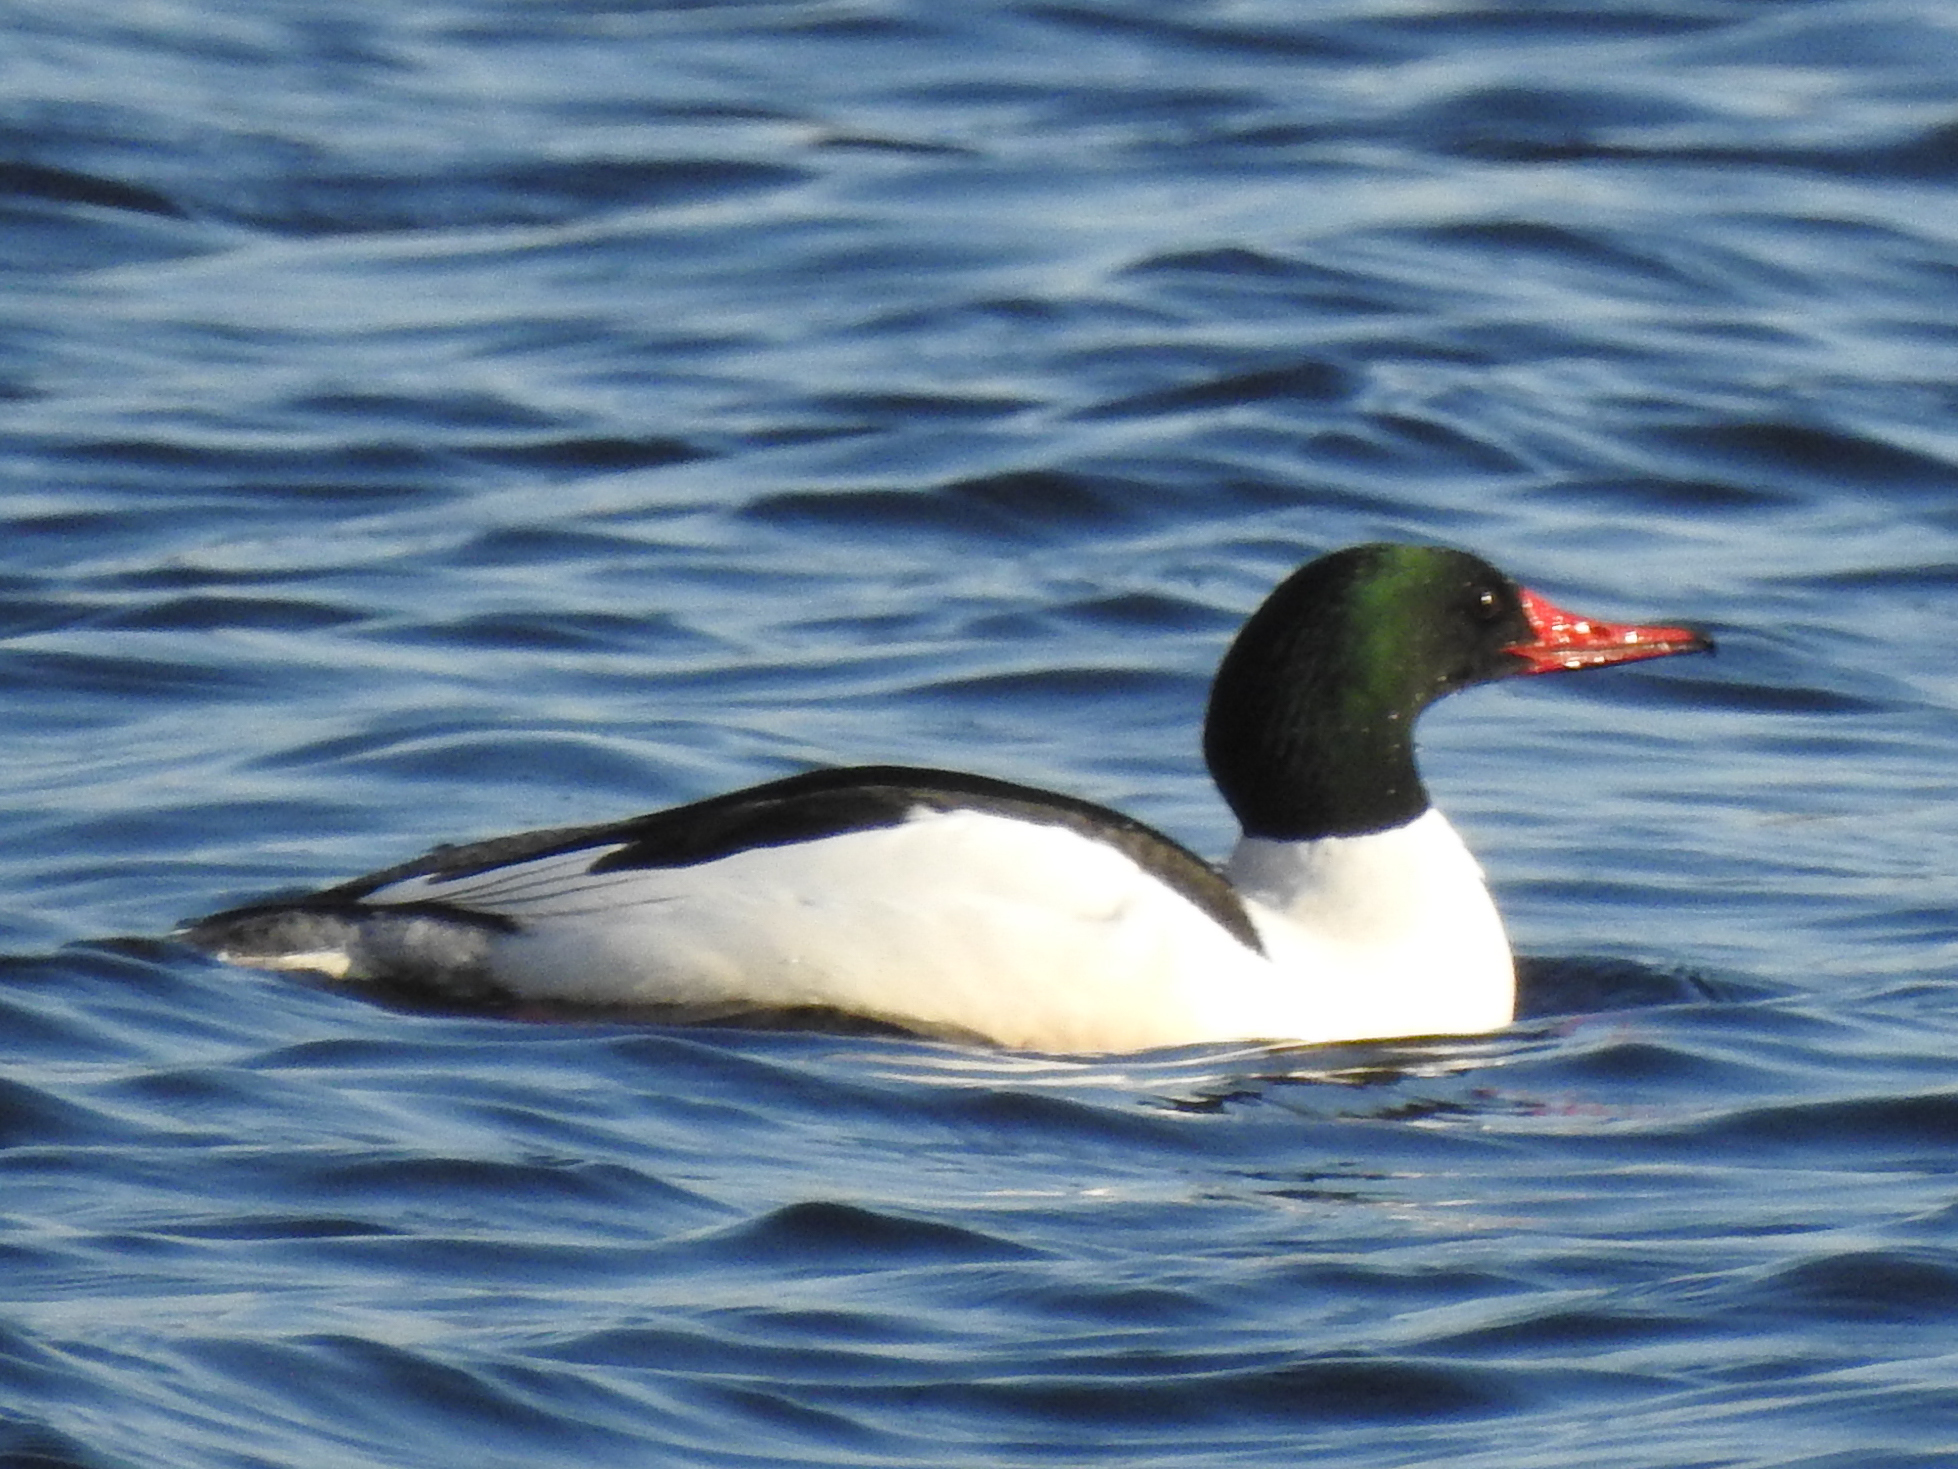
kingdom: Animalia
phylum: Chordata
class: Aves
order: Anseriformes
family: Anatidae
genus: Mergus
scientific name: Mergus merganser
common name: Common merganser
